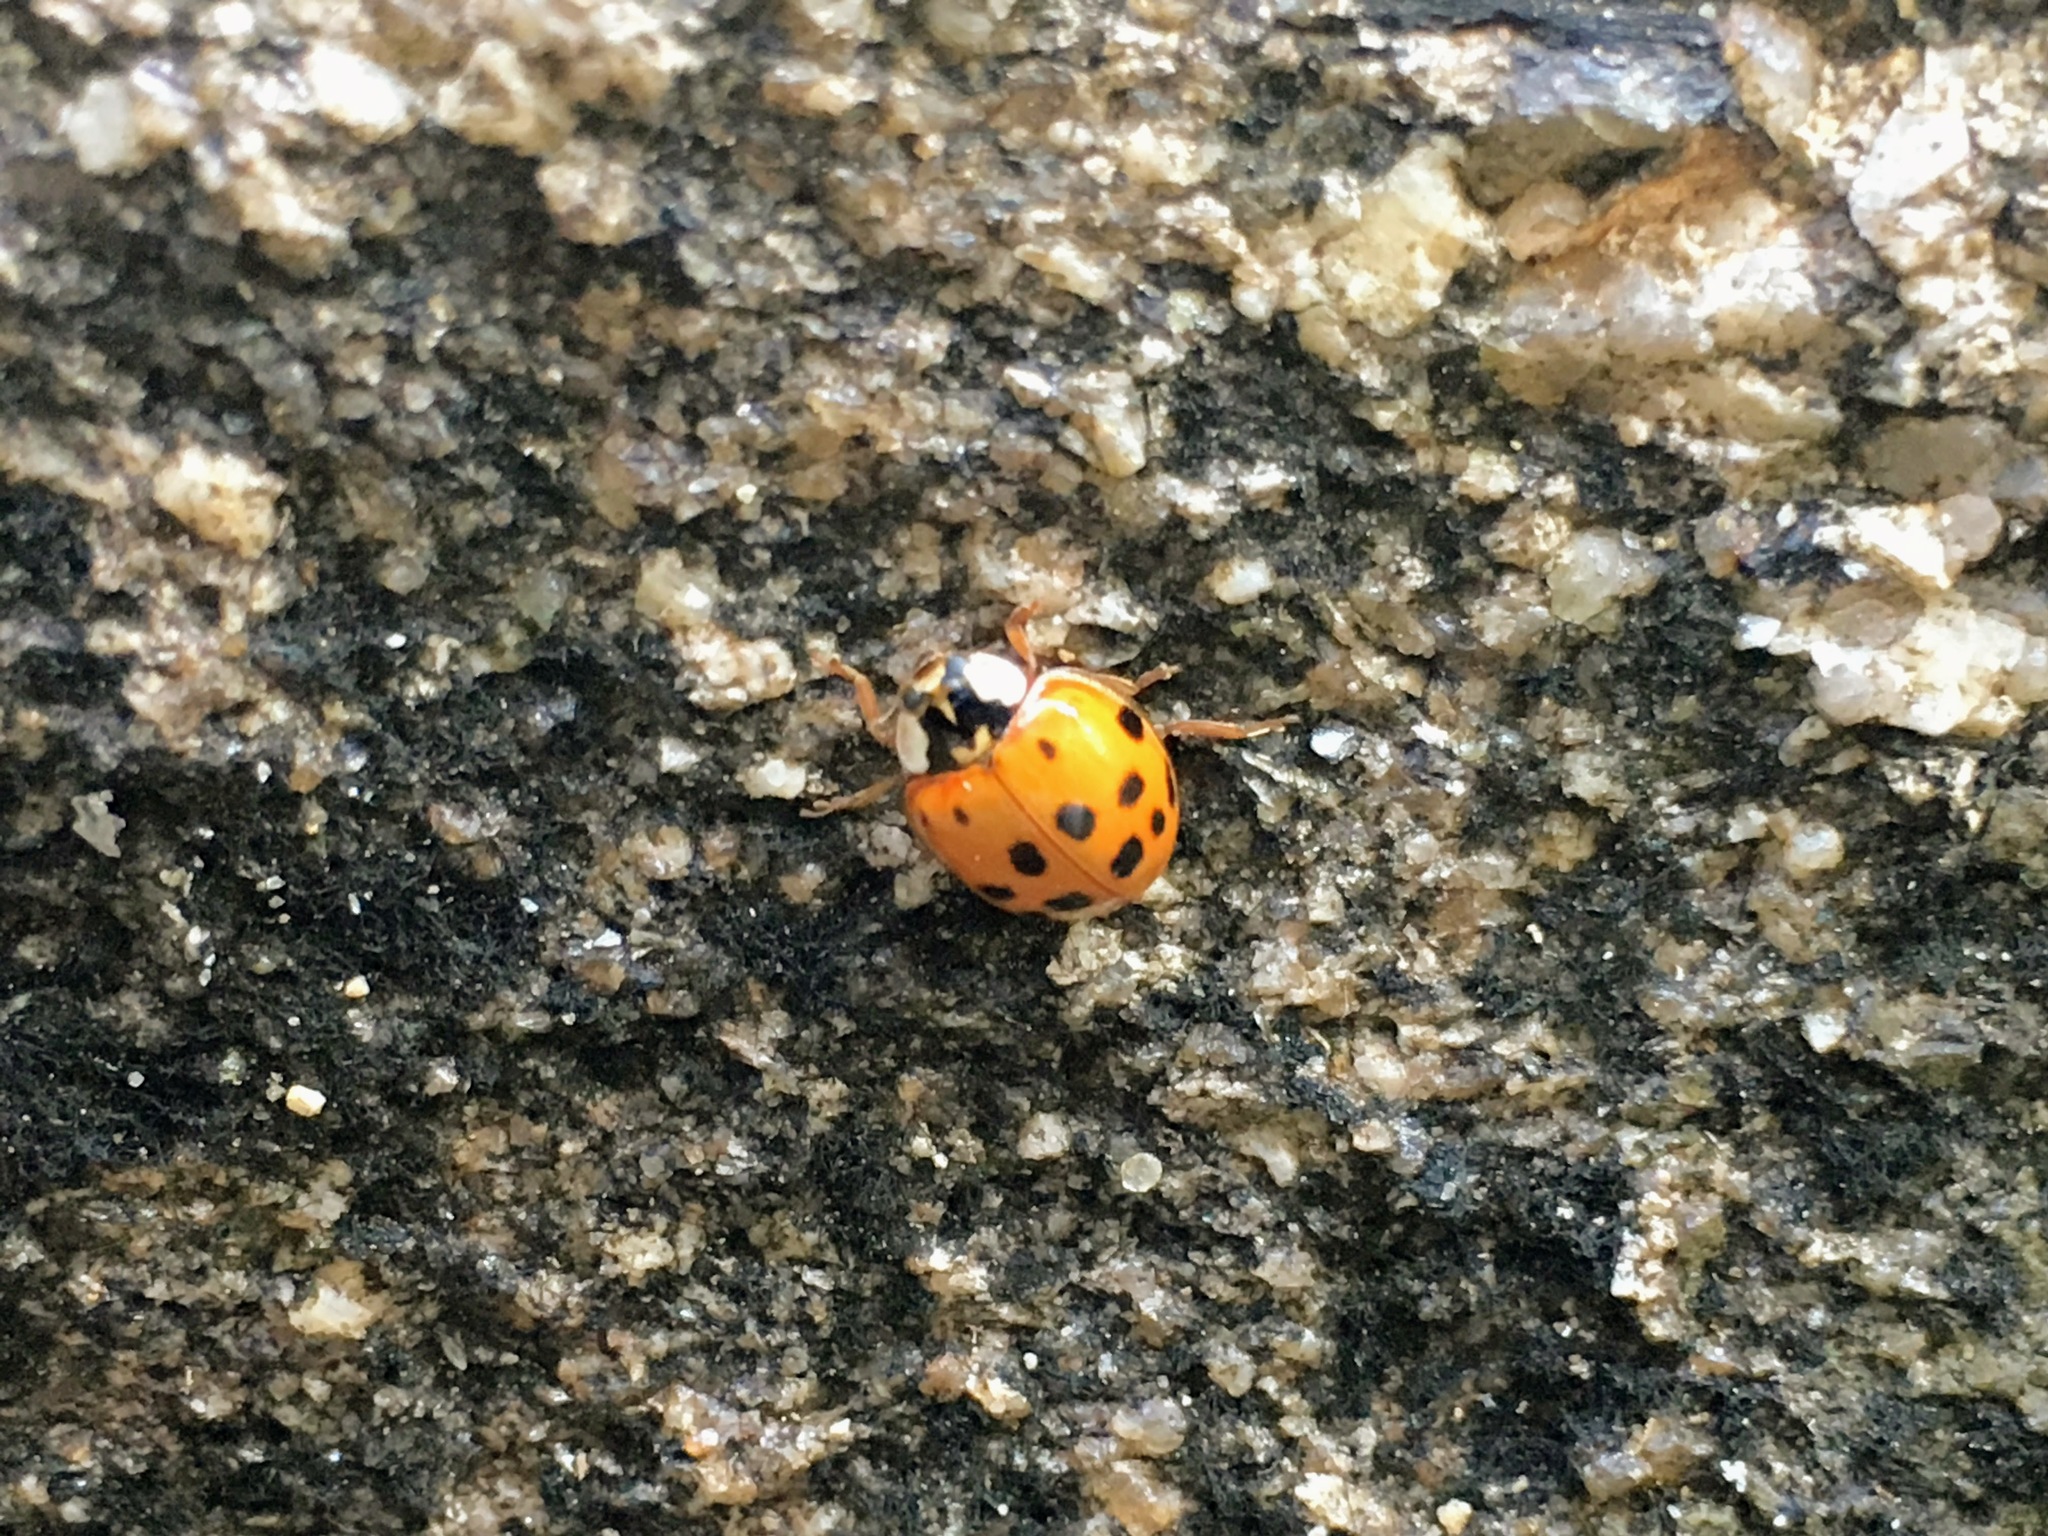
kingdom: Animalia
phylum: Arthropoda
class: Insecta
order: Coleoptera
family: Coccinellidae
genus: Harmonia
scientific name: Harmonia axyridis
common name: Harlequin ladybird
